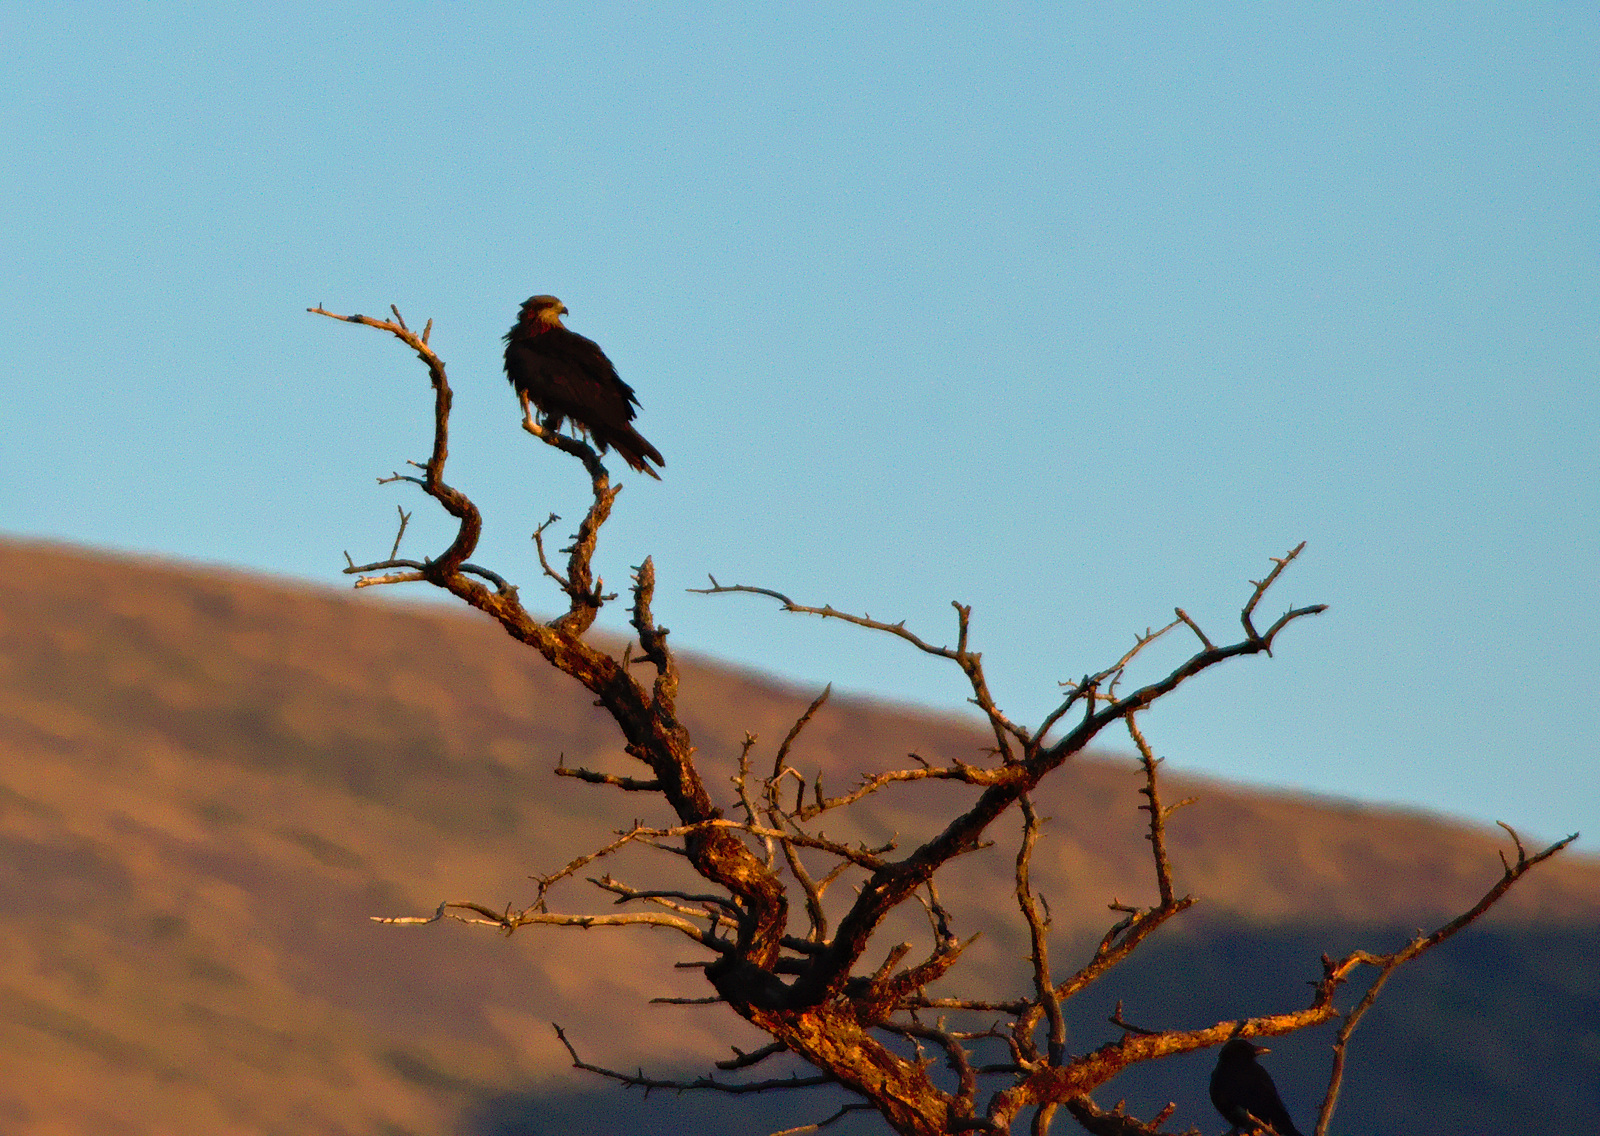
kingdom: Animalia
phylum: Chordata
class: Aves
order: Accipitriformes
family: Accipitridae
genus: Milvus
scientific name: Milvus migrans
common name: Black kite
